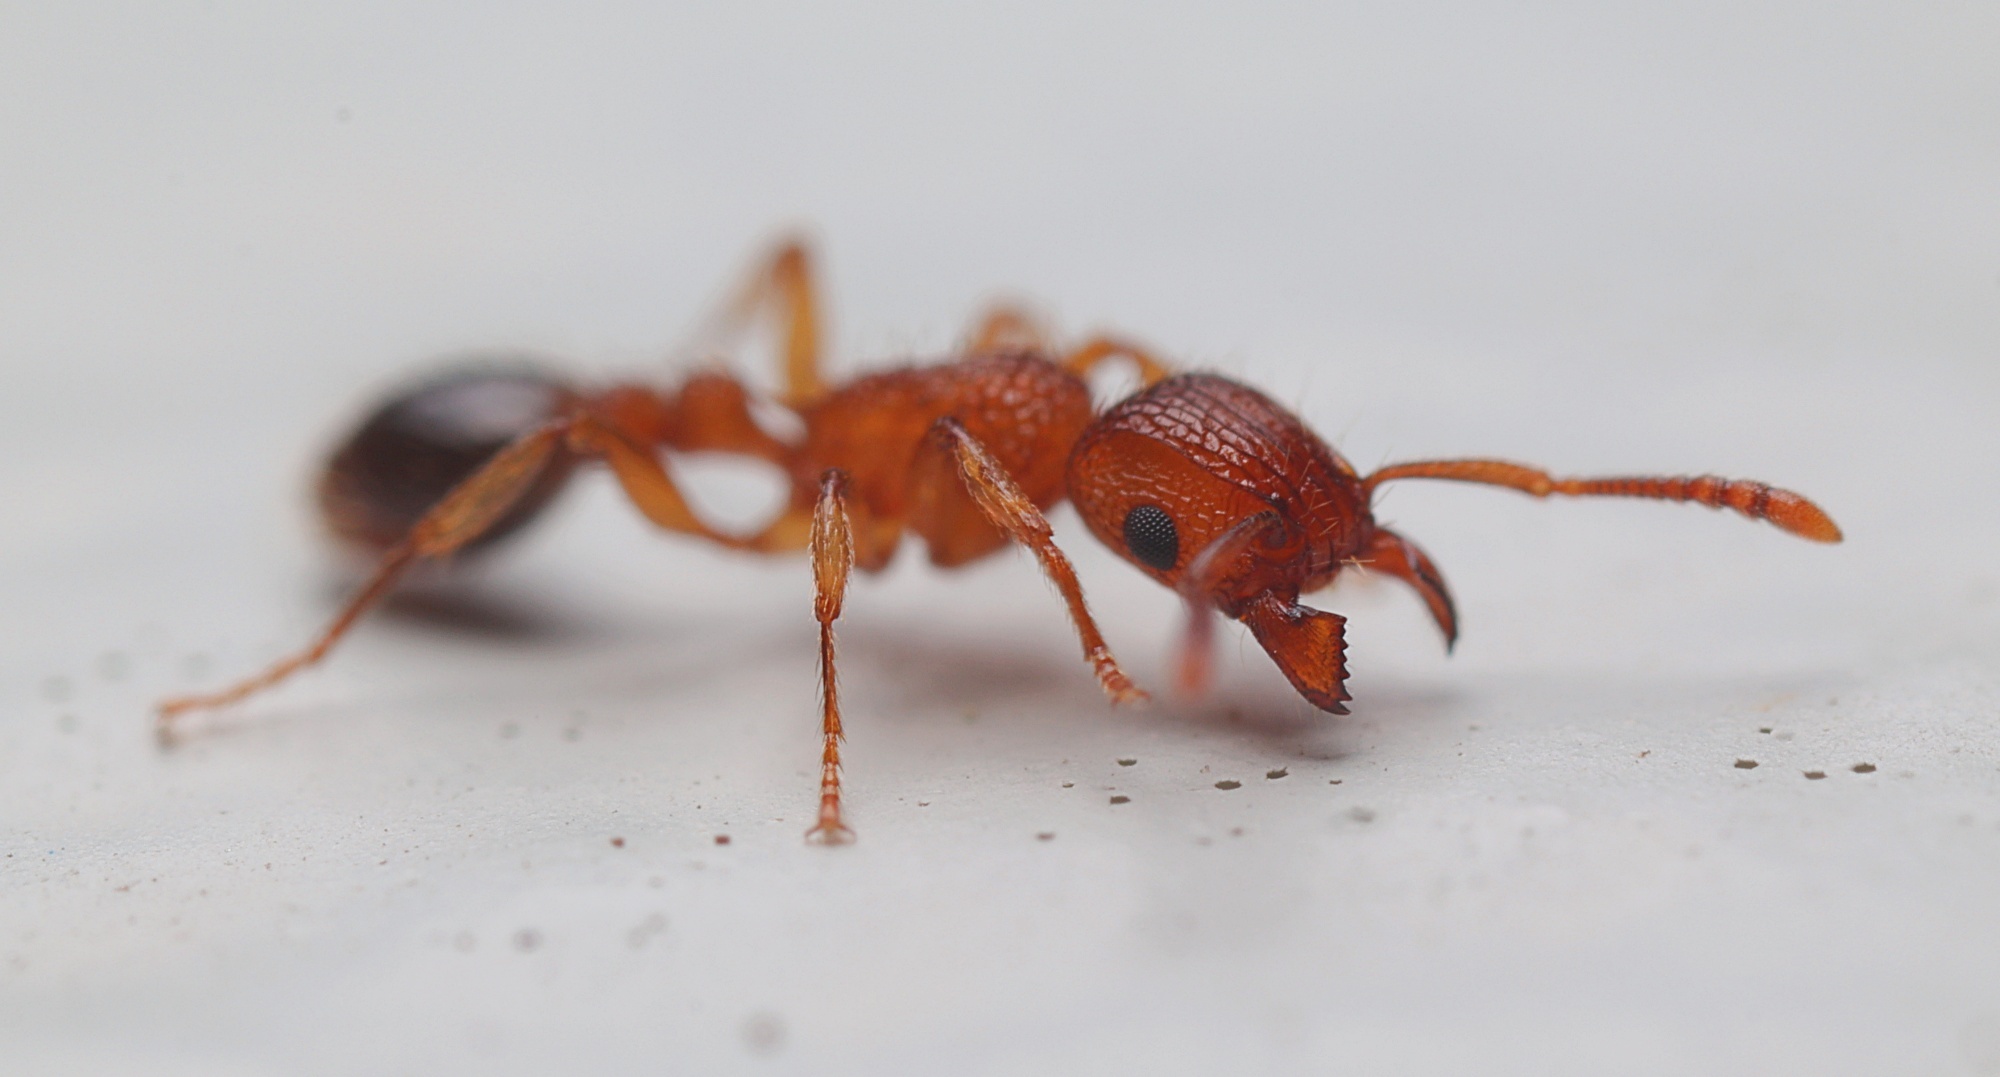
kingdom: Animalia
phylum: Arthropoda
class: Insecta
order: Hymenoptera
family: Formicidae
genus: Tetramorium
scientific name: Tetramorium bicarinatum
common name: Guinea ant
